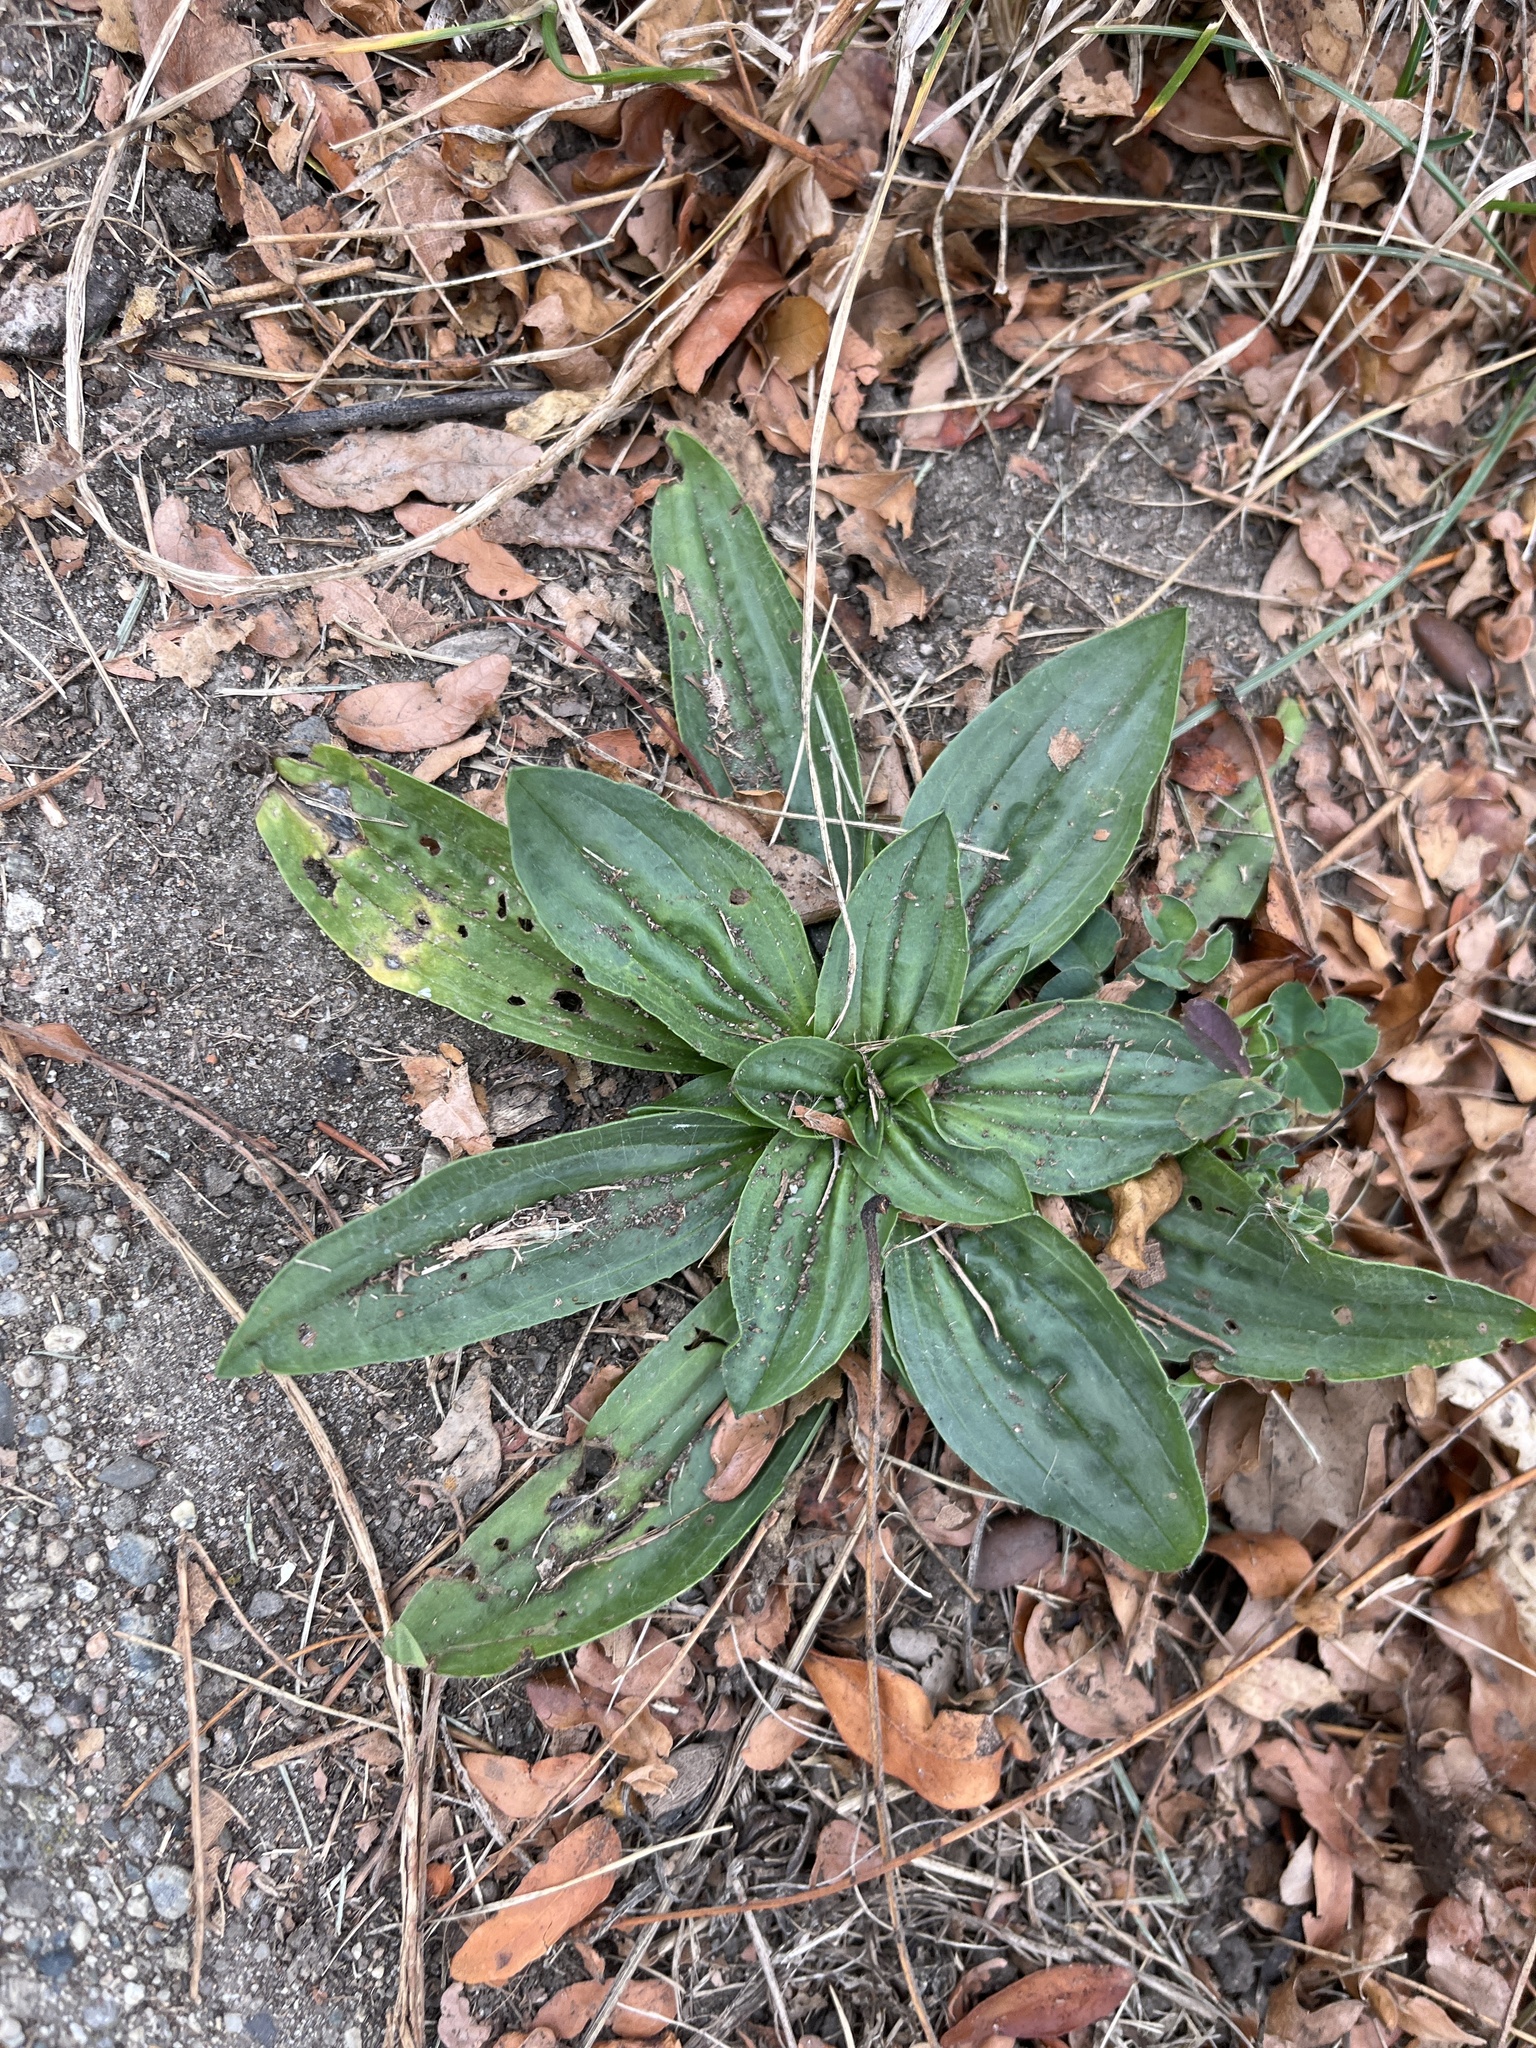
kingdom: Plantae
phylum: Tracheophyta
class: Magnoliopsida
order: Lamiales
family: Plantaginaceae
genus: Plantago
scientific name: Plantago lanceolata
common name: Ribwort plantain
